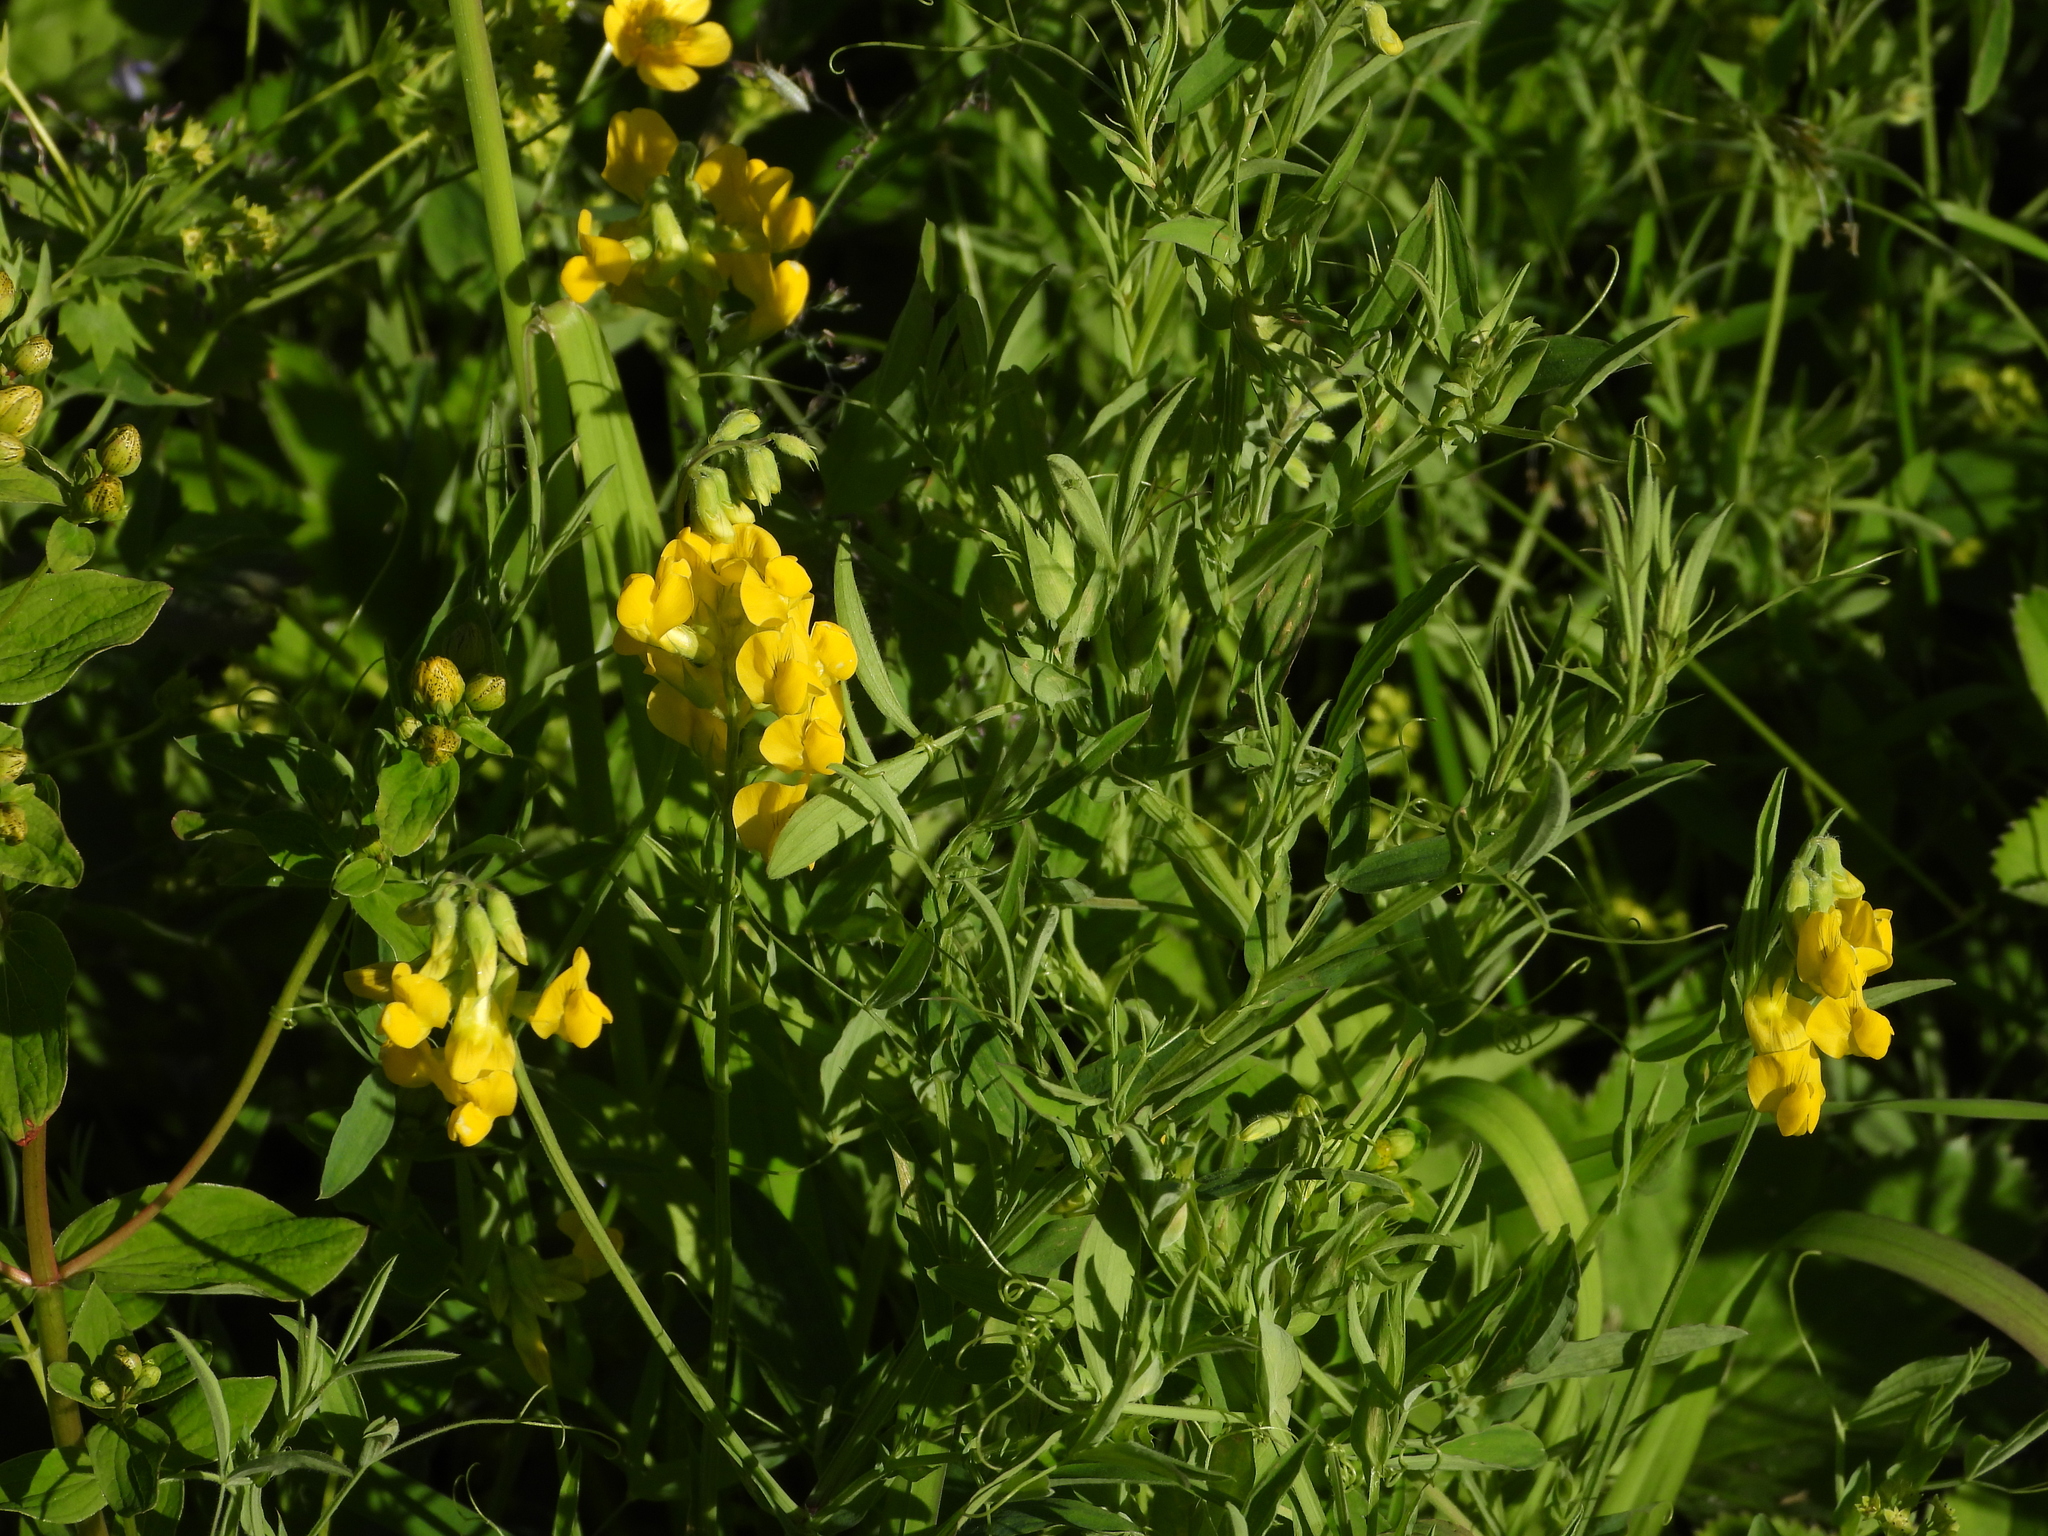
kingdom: Plantae
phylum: Tracheophyta
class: Magnoliopsida
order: Fabales
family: Fabaceae
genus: Lathyrus
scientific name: Lathyrus pratensis
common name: Meadow vetchling
